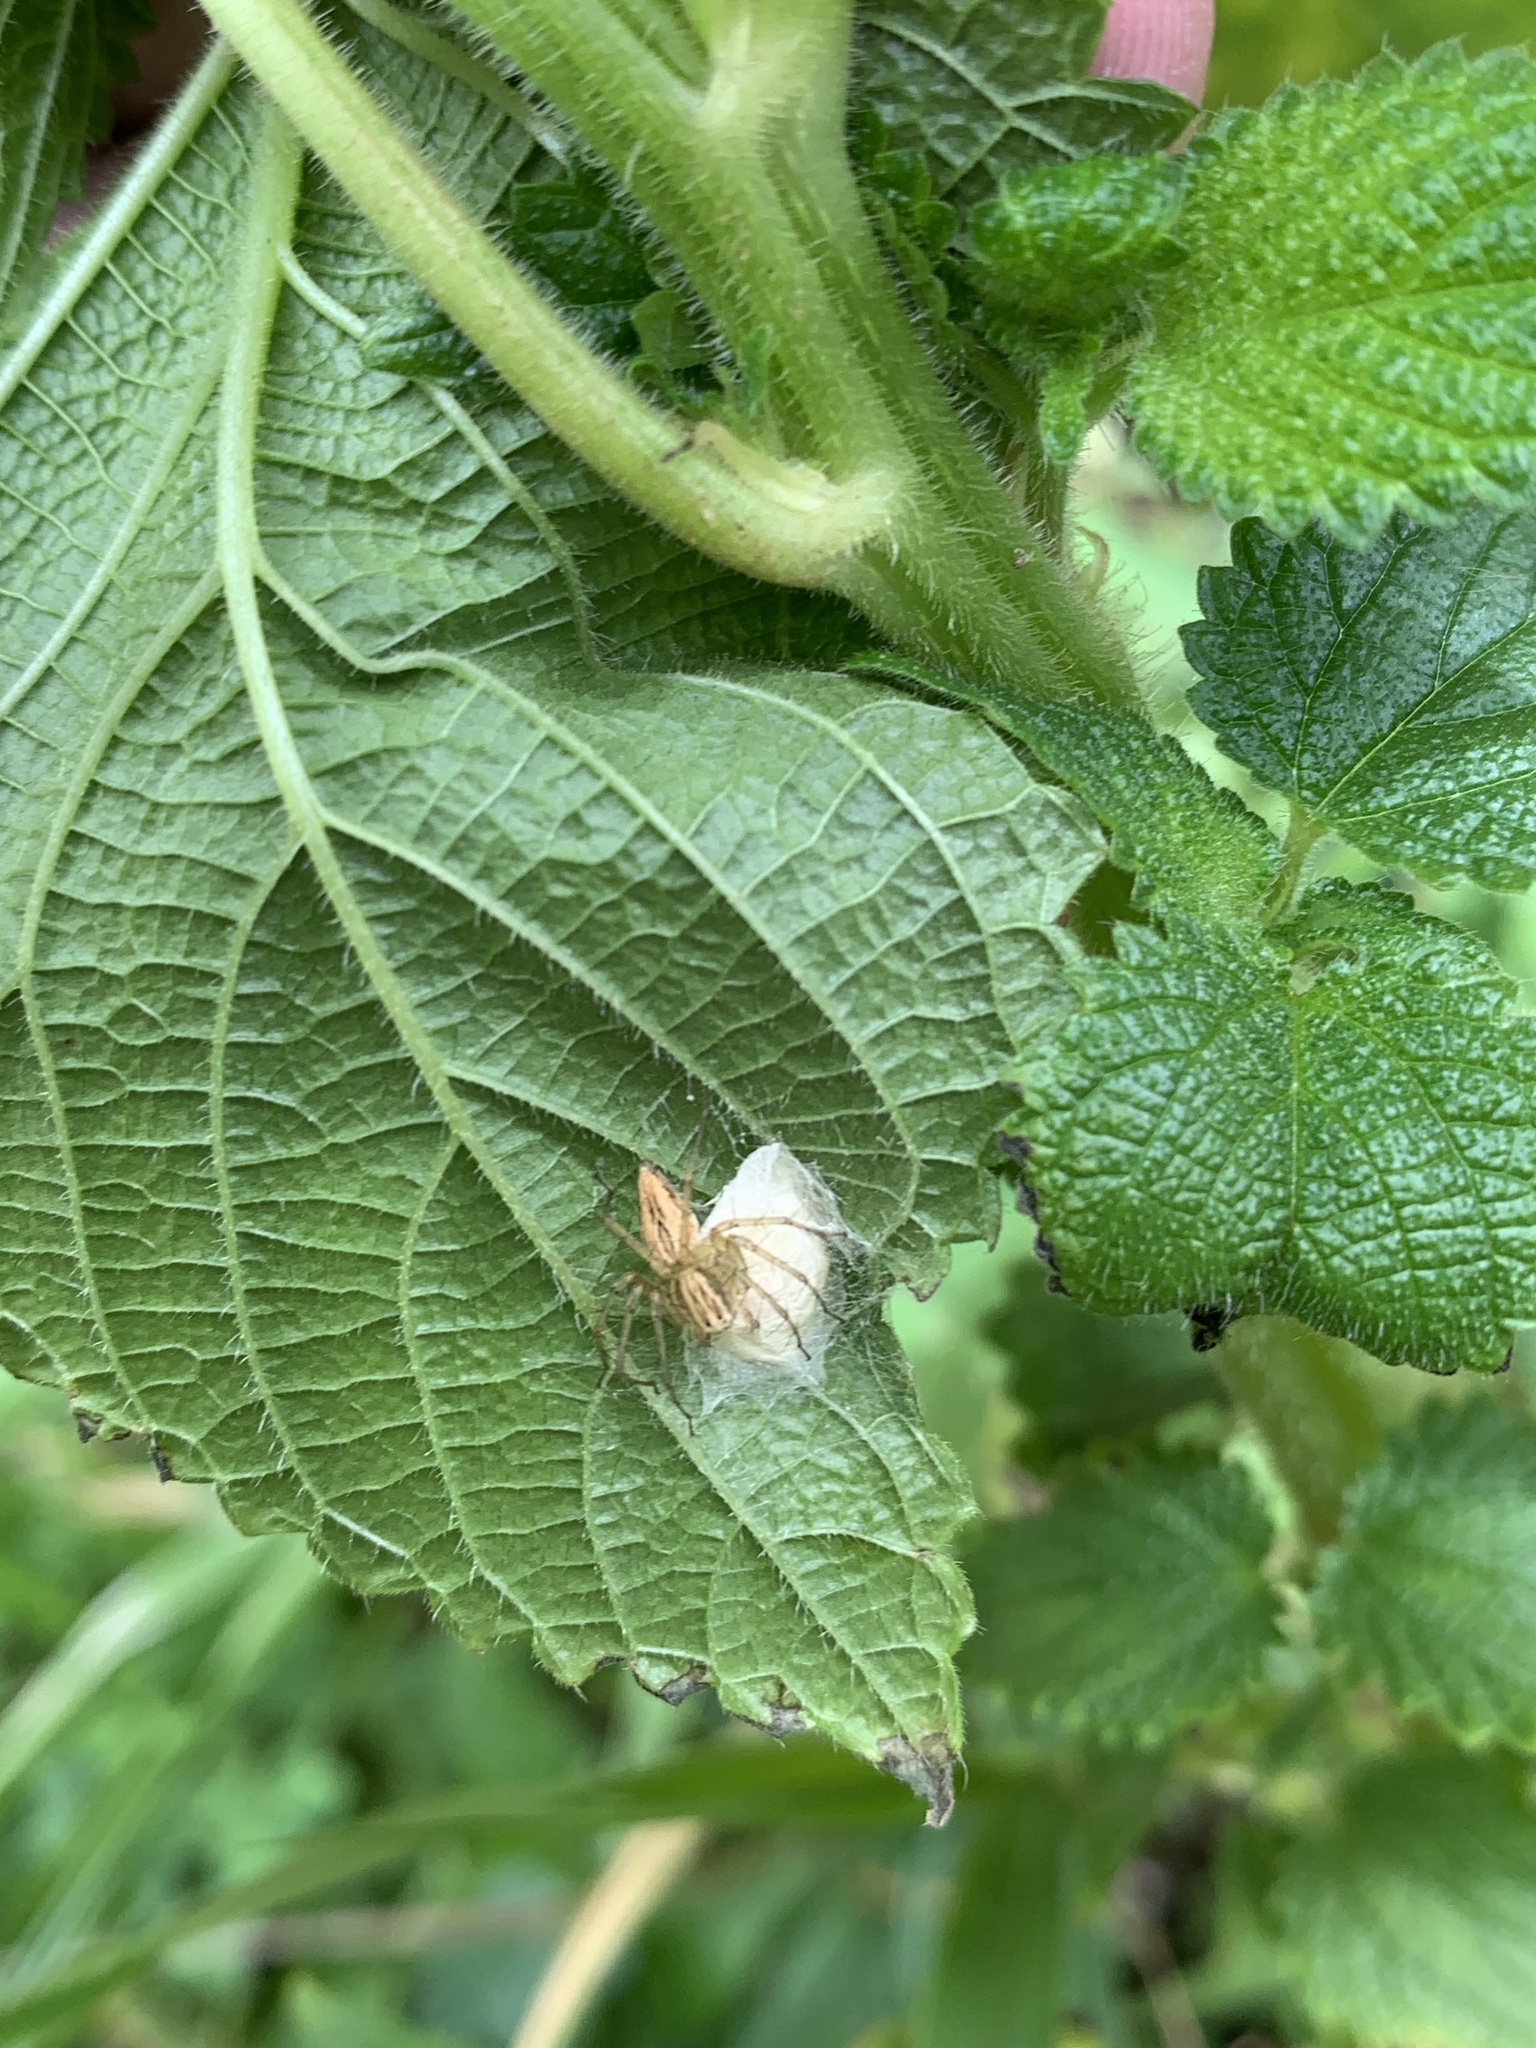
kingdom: Animalia
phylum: Arthropoda
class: Arachnida
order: Araneae
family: Oxyopidae
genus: Oxyopes
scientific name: Oxyopes salticus
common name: Lynx spiders
